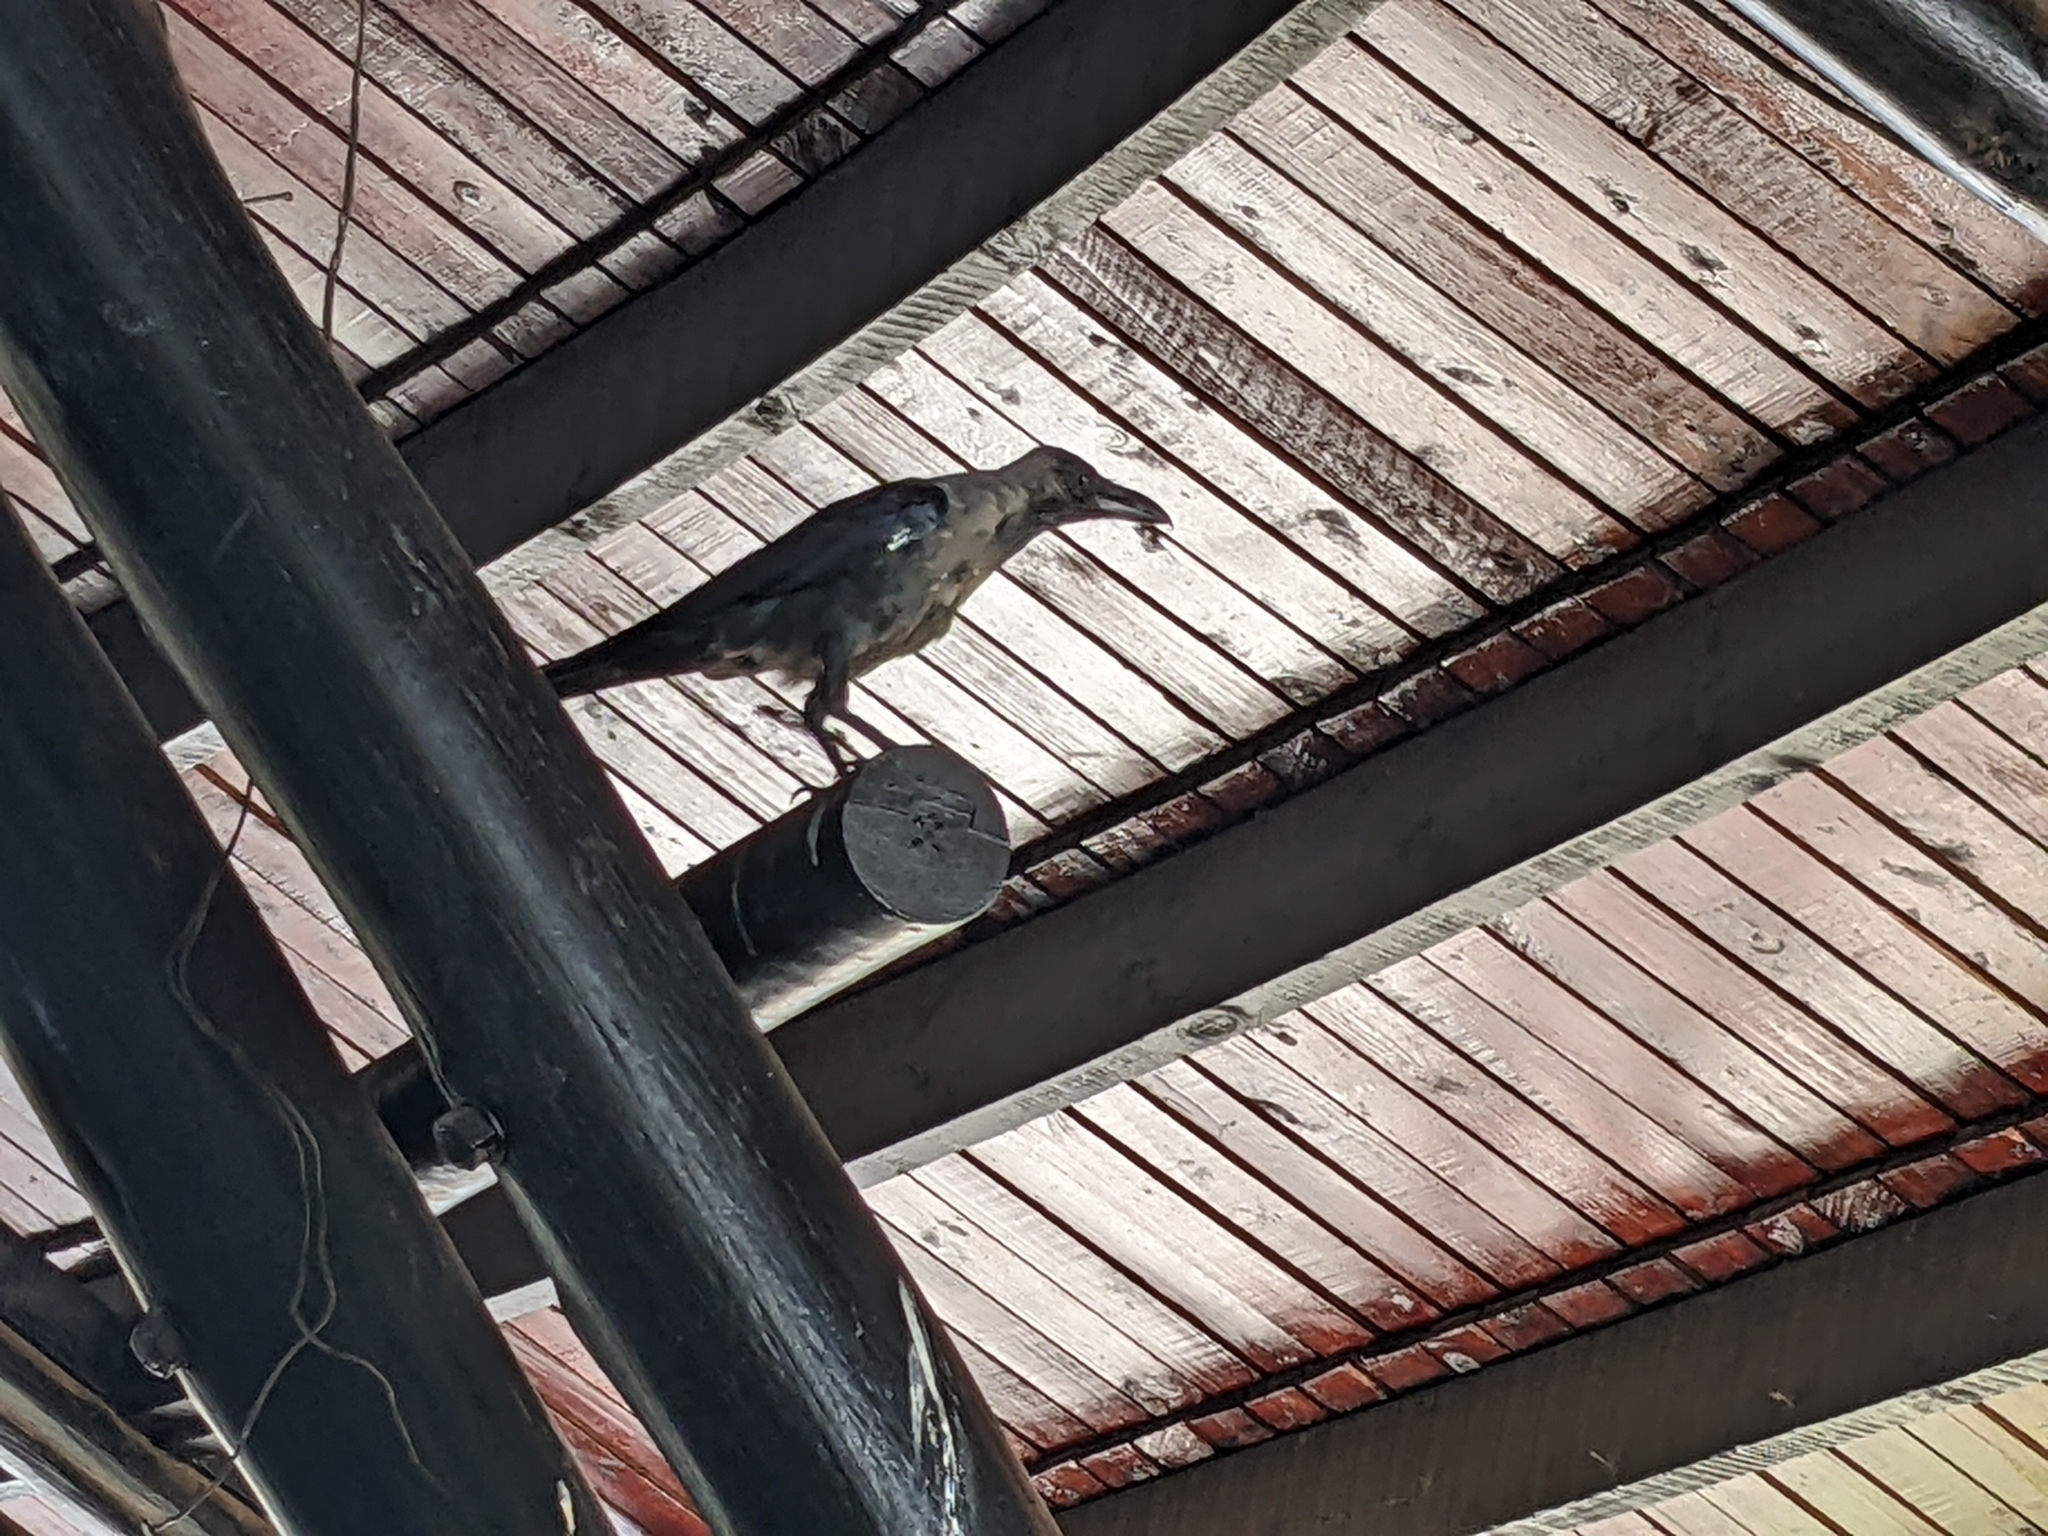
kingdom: Animalia
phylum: Chordata
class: Aves
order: Passeriformes
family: Corvidae
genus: Corvus
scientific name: Corvus splendens
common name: House crow
